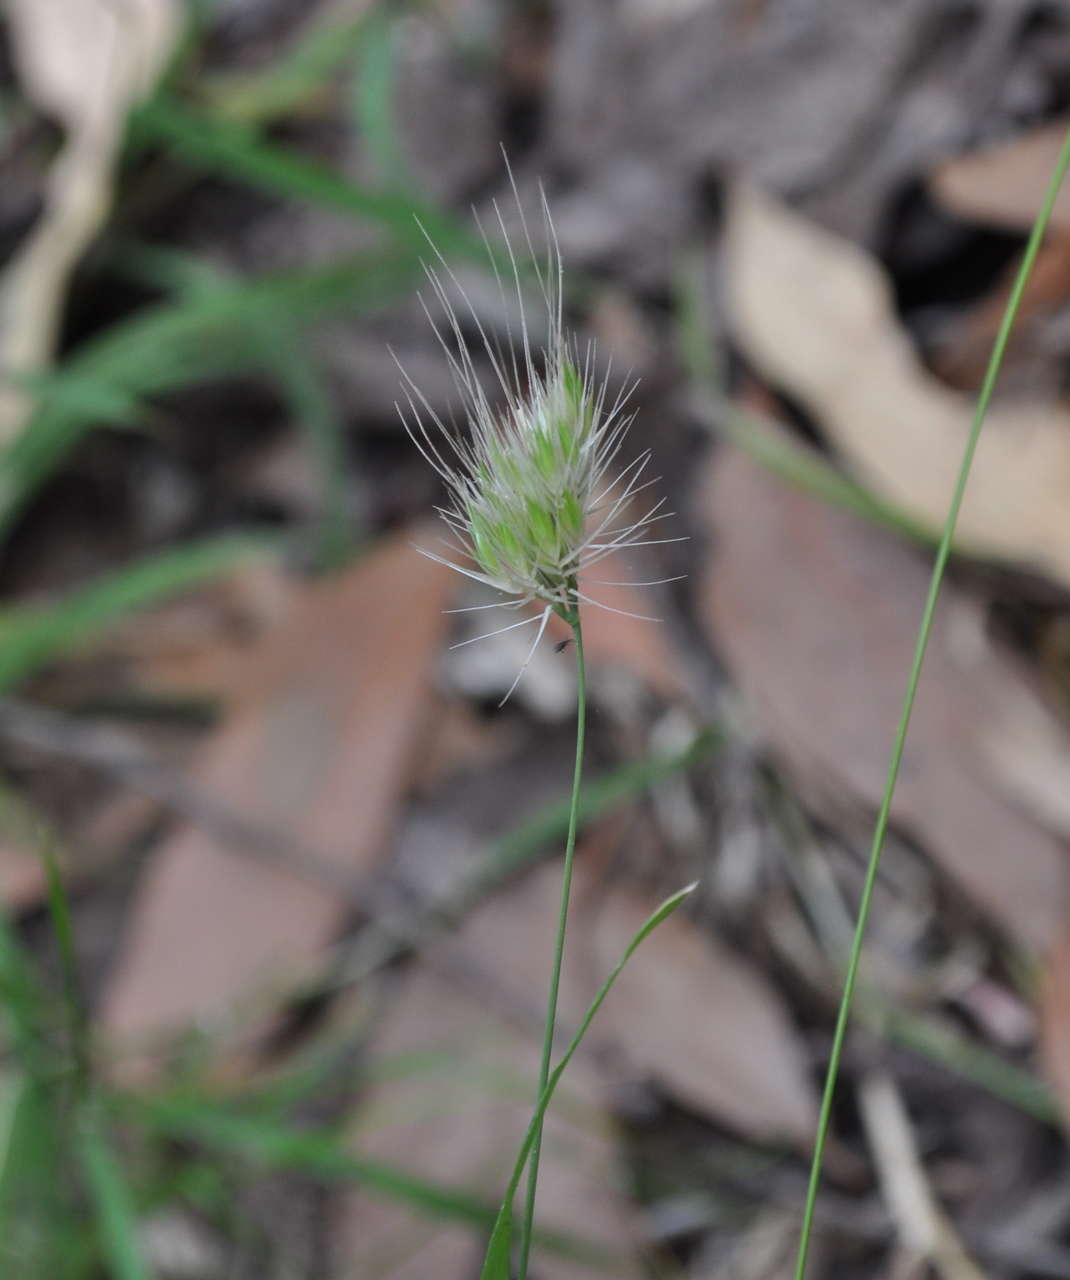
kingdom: Plantae
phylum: Tracheophyta
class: Liliopsida
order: Poales
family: Poaceae
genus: Cynosurus
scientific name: Cynosurus echinatus
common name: Rough dog's-tail
